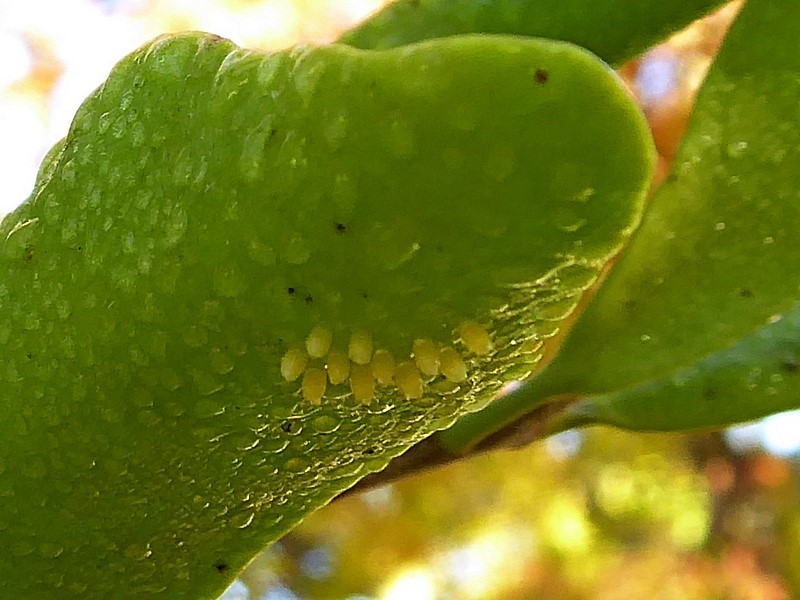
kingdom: Animalia
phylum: Arthropoda
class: Insecta
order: Lepidoptera
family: Pieridae
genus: Delias
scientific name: Delias nigrina
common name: Black jezebel
